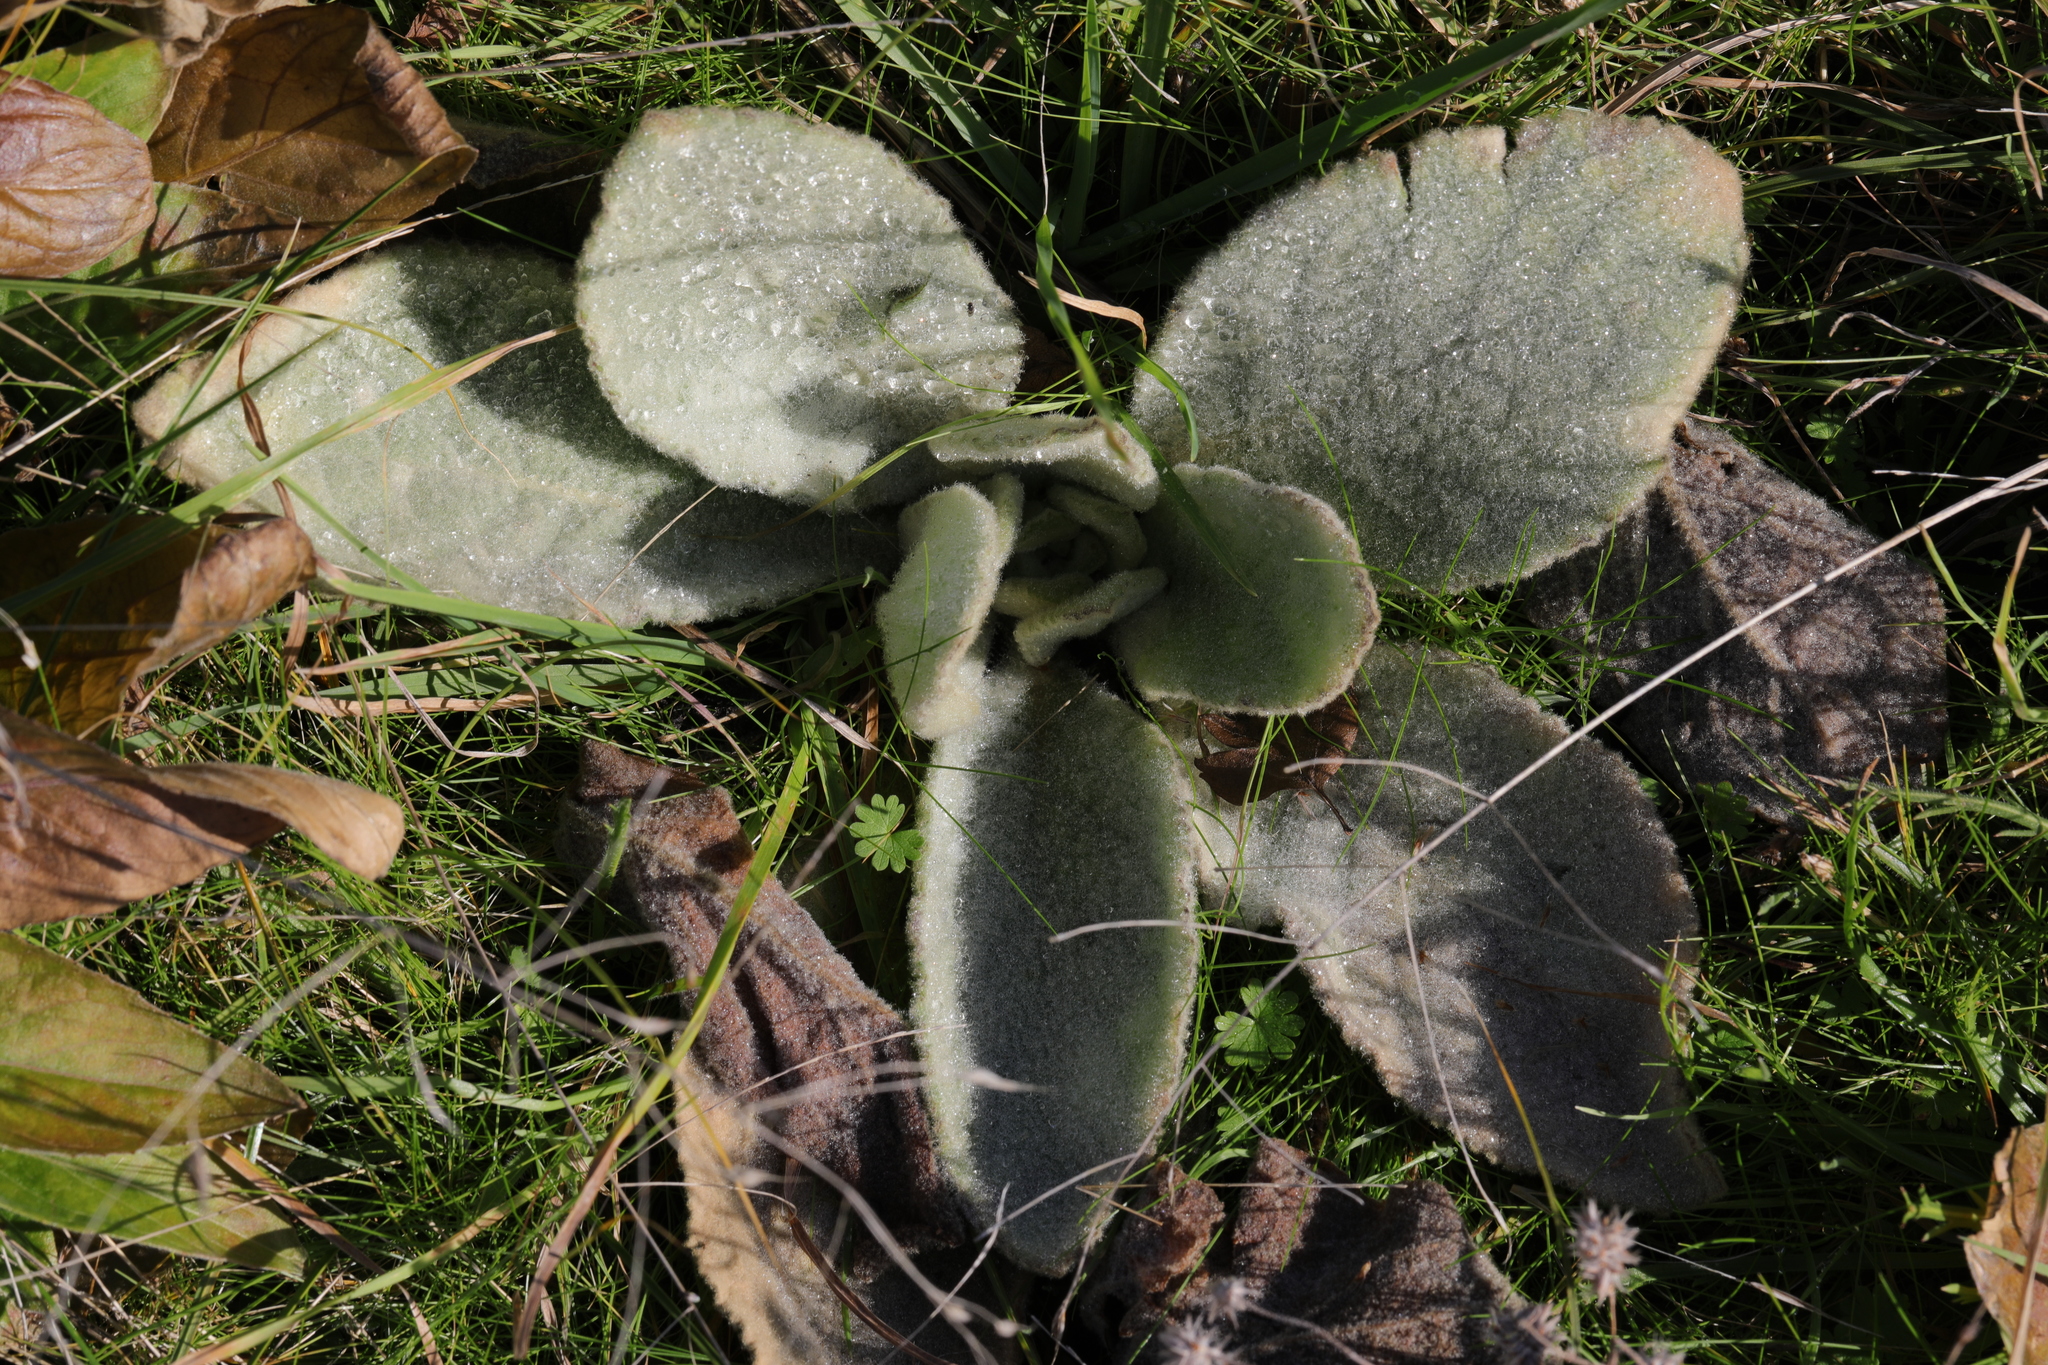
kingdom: Plantae
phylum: Tracheophyta
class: Magnoliopsida
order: Lamiales
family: Scrophulariaceae
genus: Verbascum
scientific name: Verbascum thapsus
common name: Common mullein
